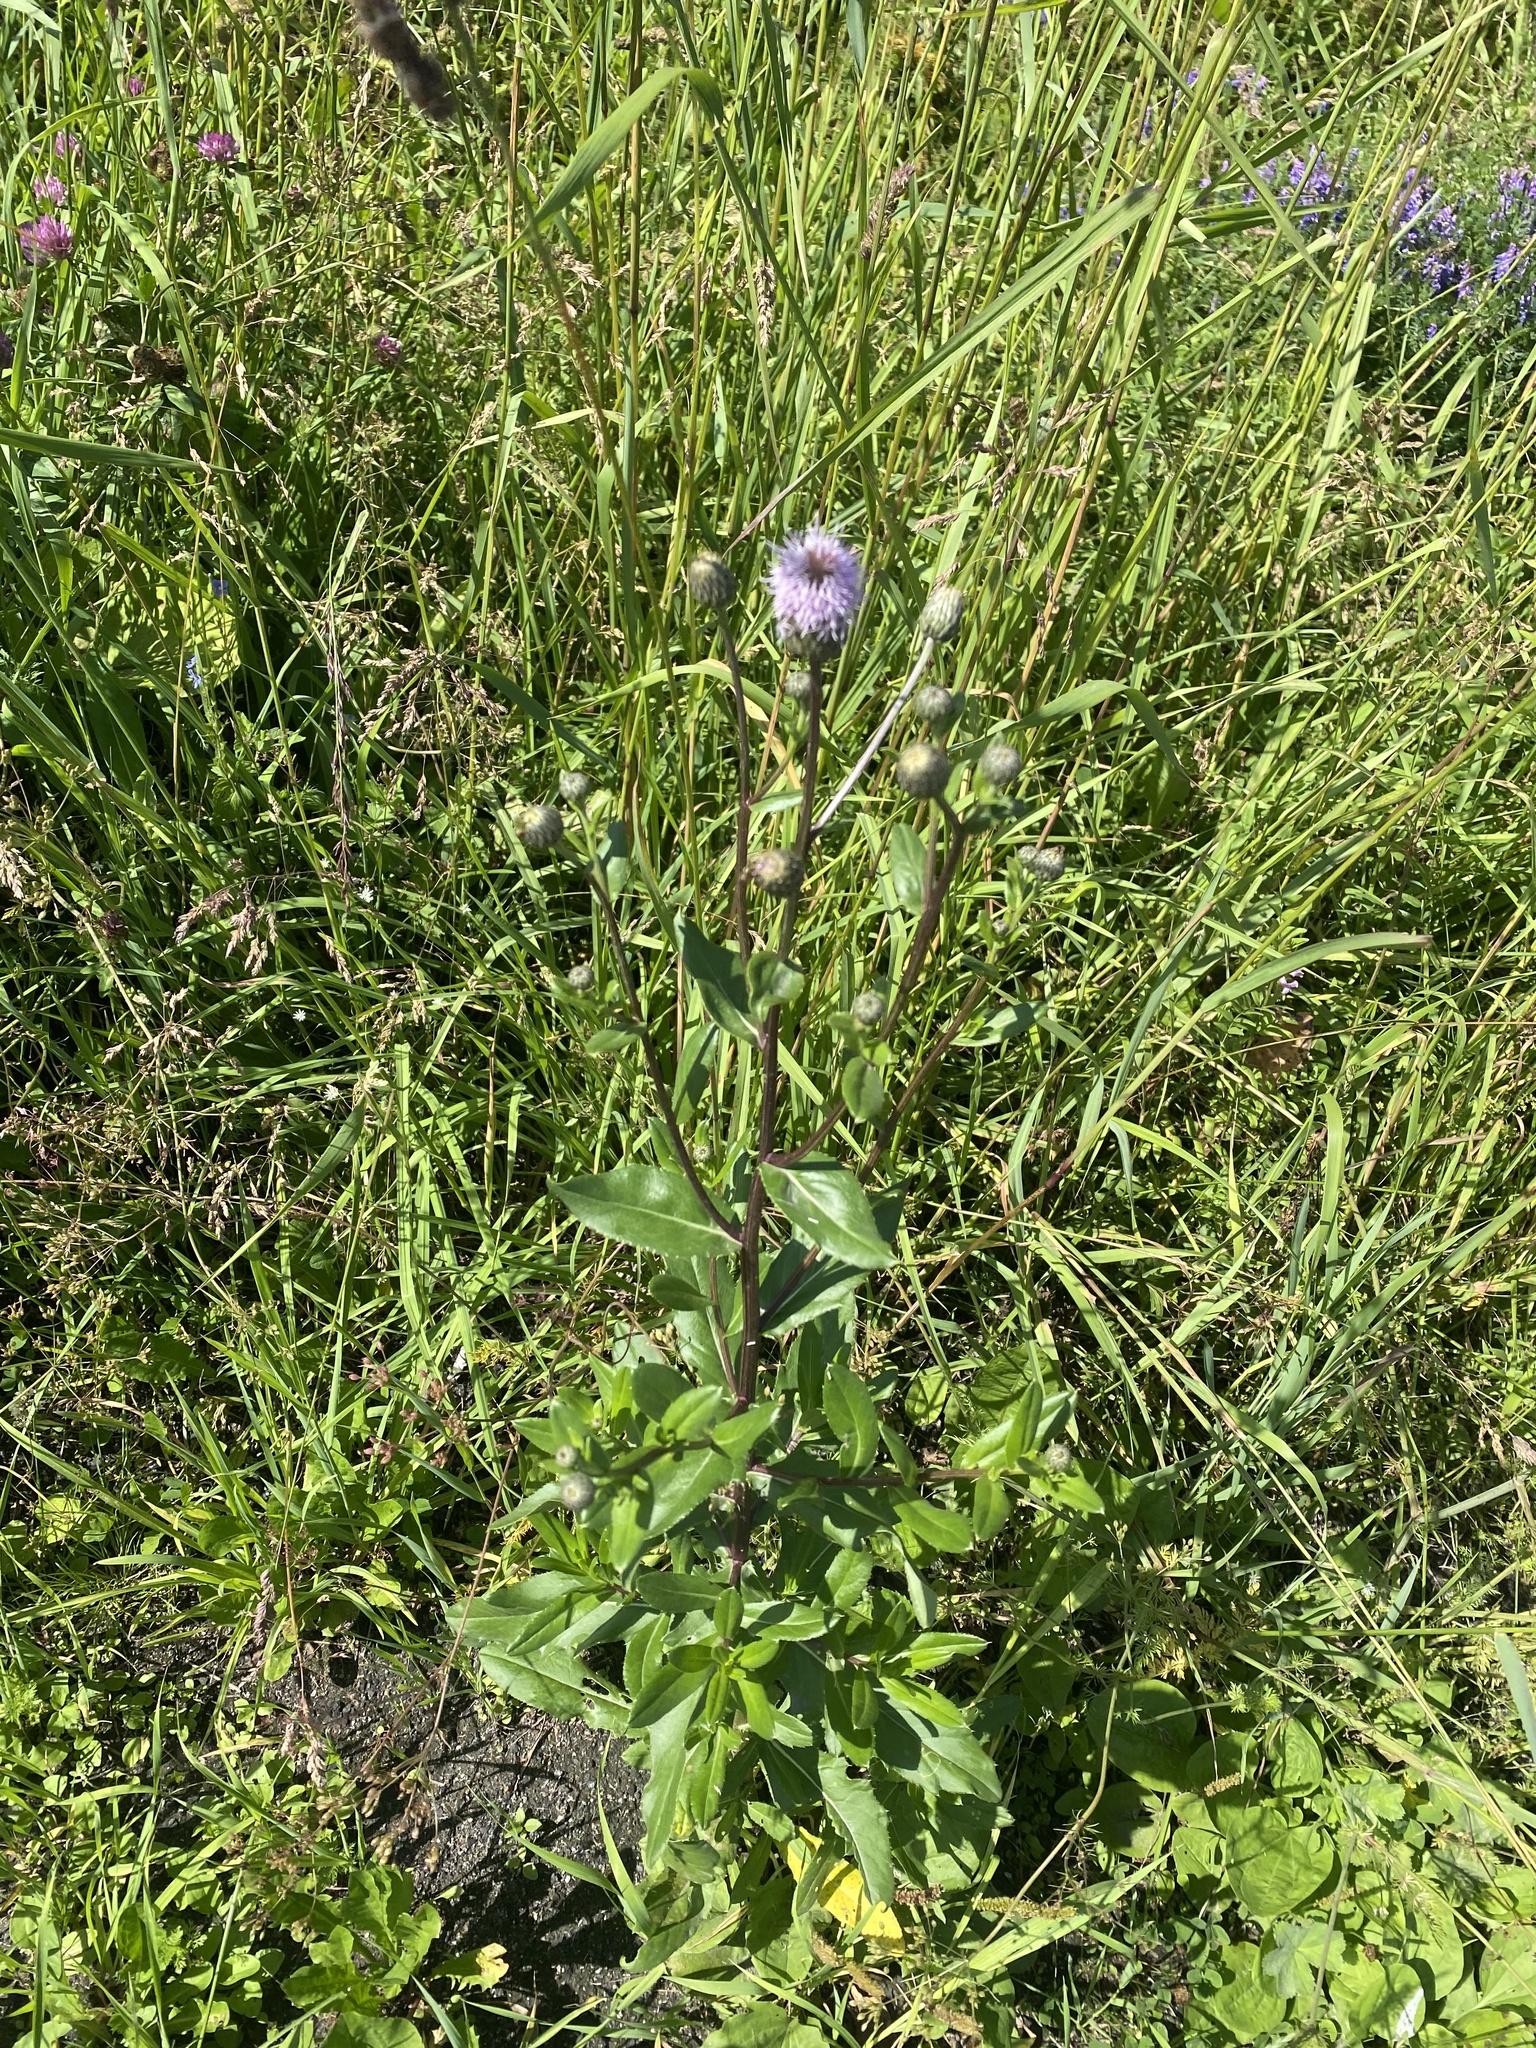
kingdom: Plantae
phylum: Tracheophyta
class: Magnoliopsida
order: Asterales
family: Asteraceae
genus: Cirsium
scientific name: Cirsium arvense
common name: Creeping thistle
